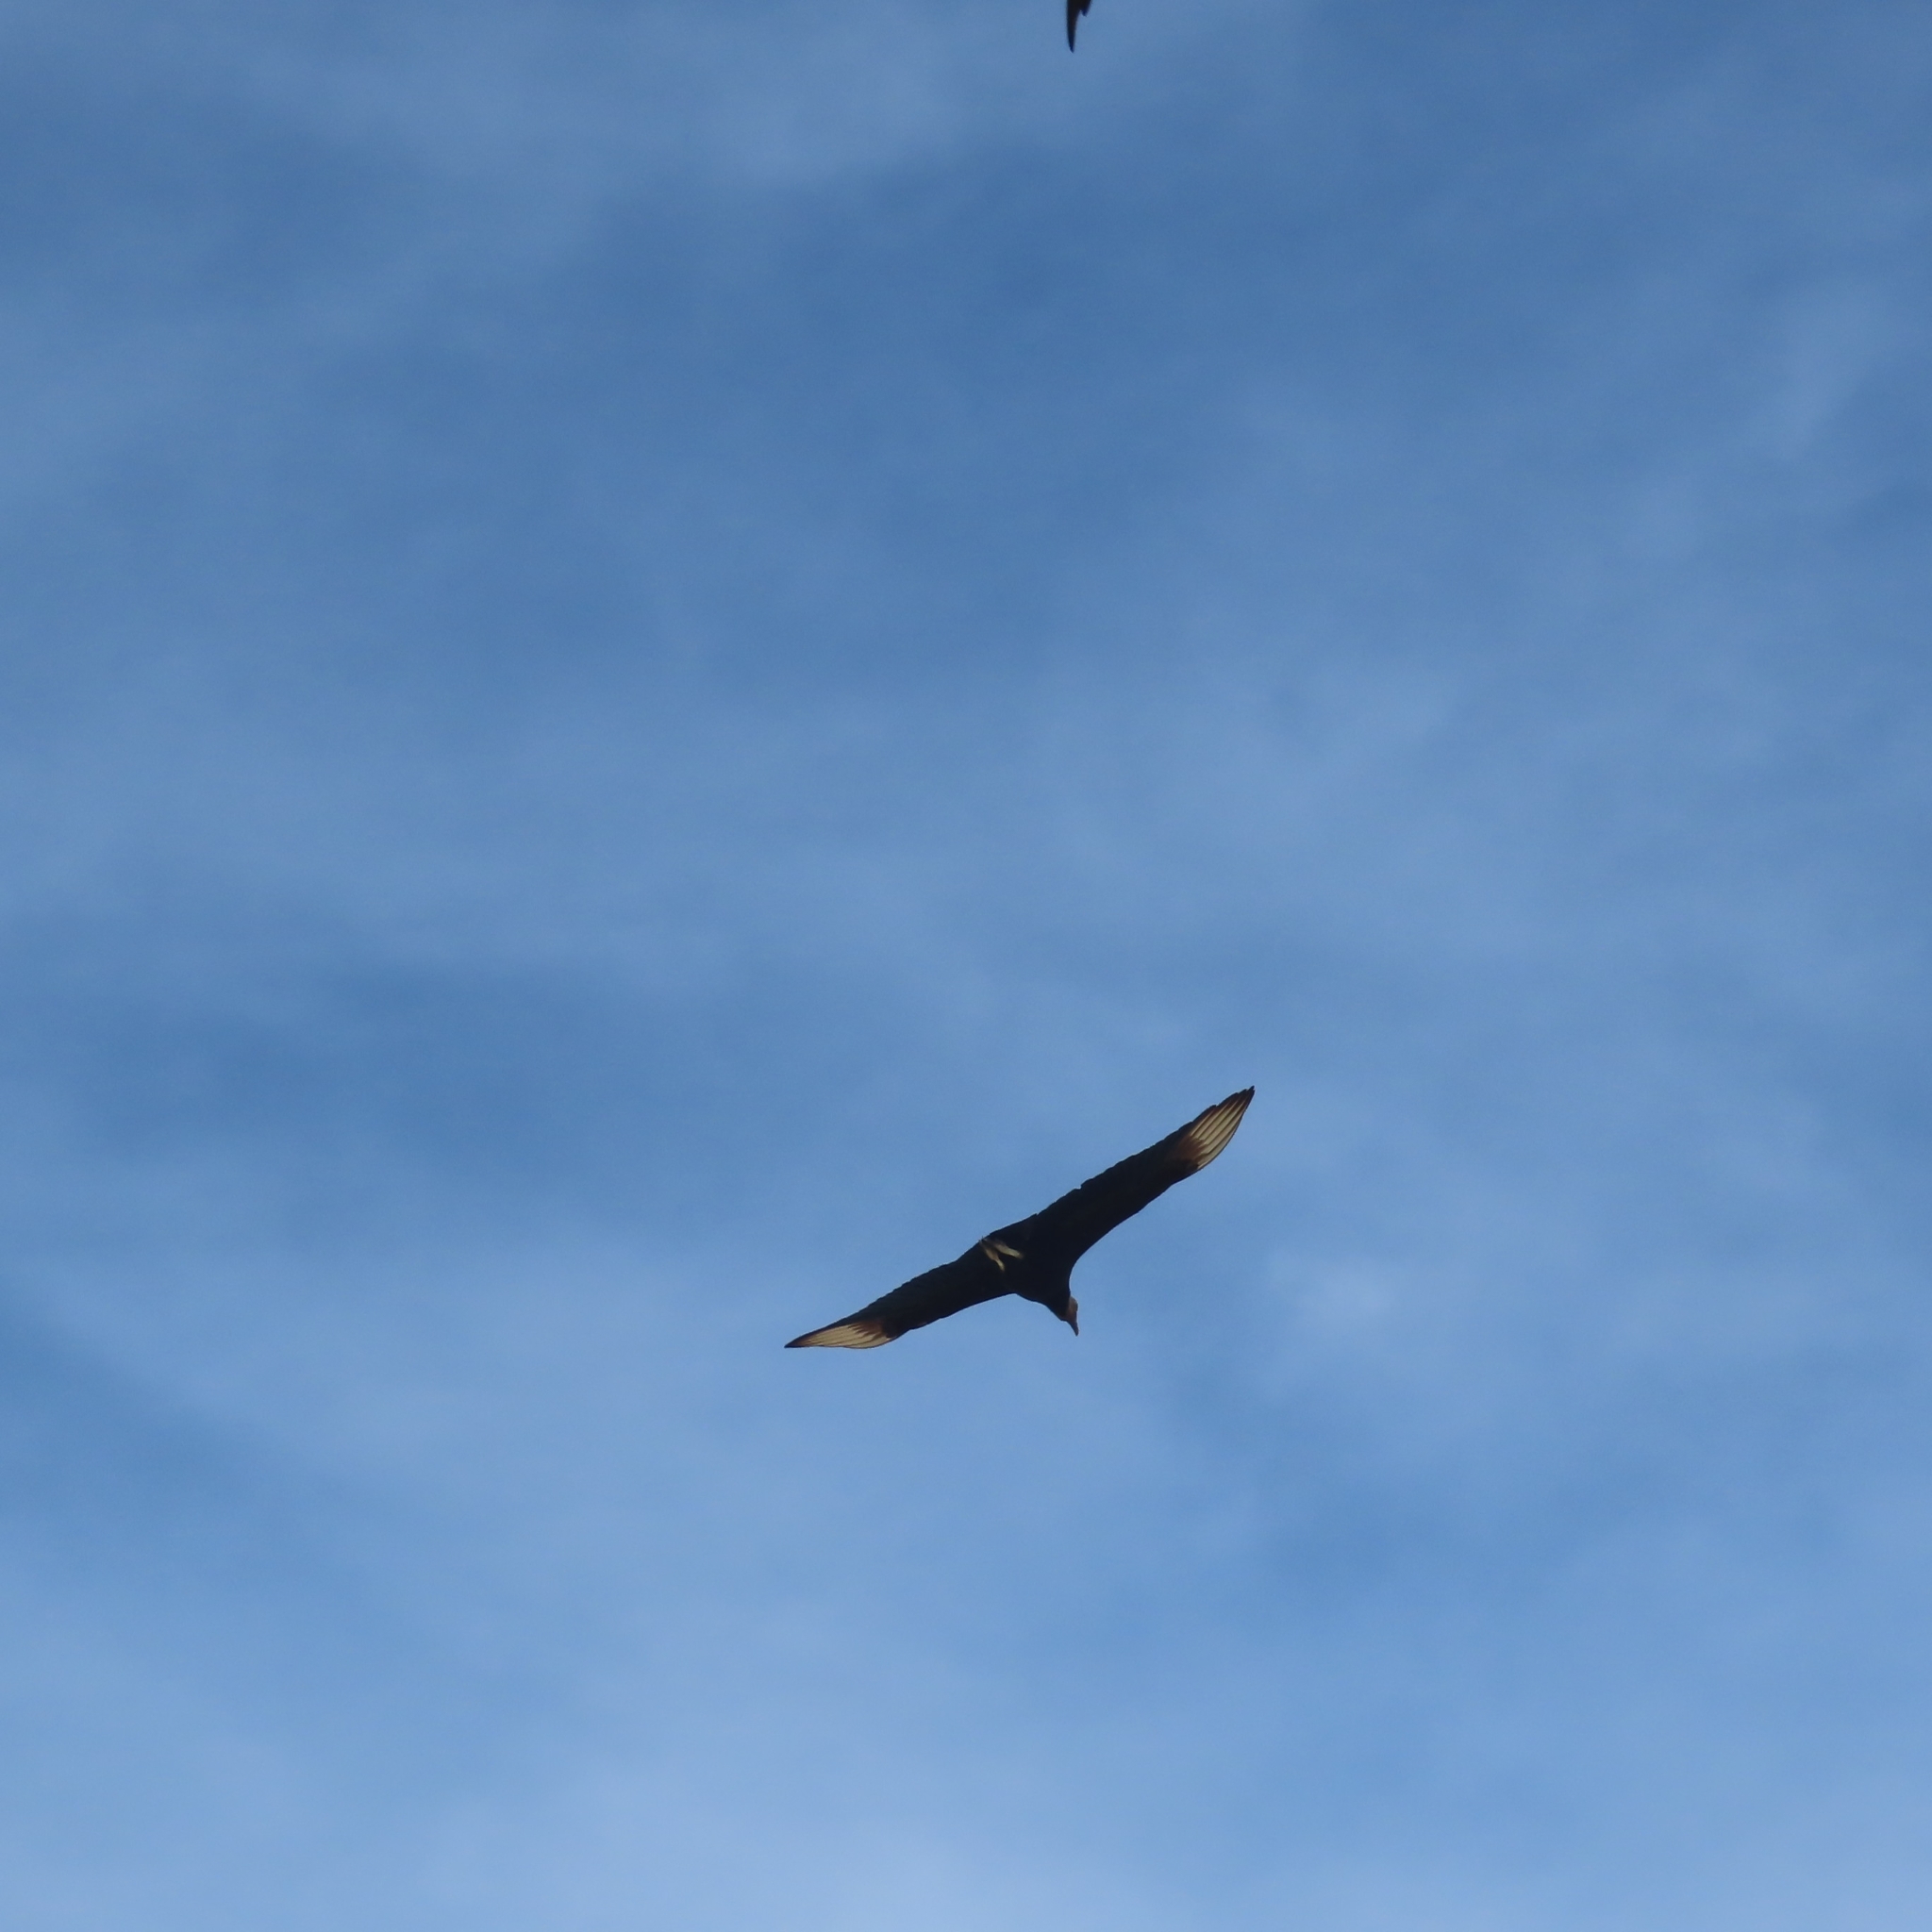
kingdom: Animalia
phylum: Chordata
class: Aves
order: Accipitriformes
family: Cathartidae
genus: Coragyps
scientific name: Coragyps atratus
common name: Black vulture
